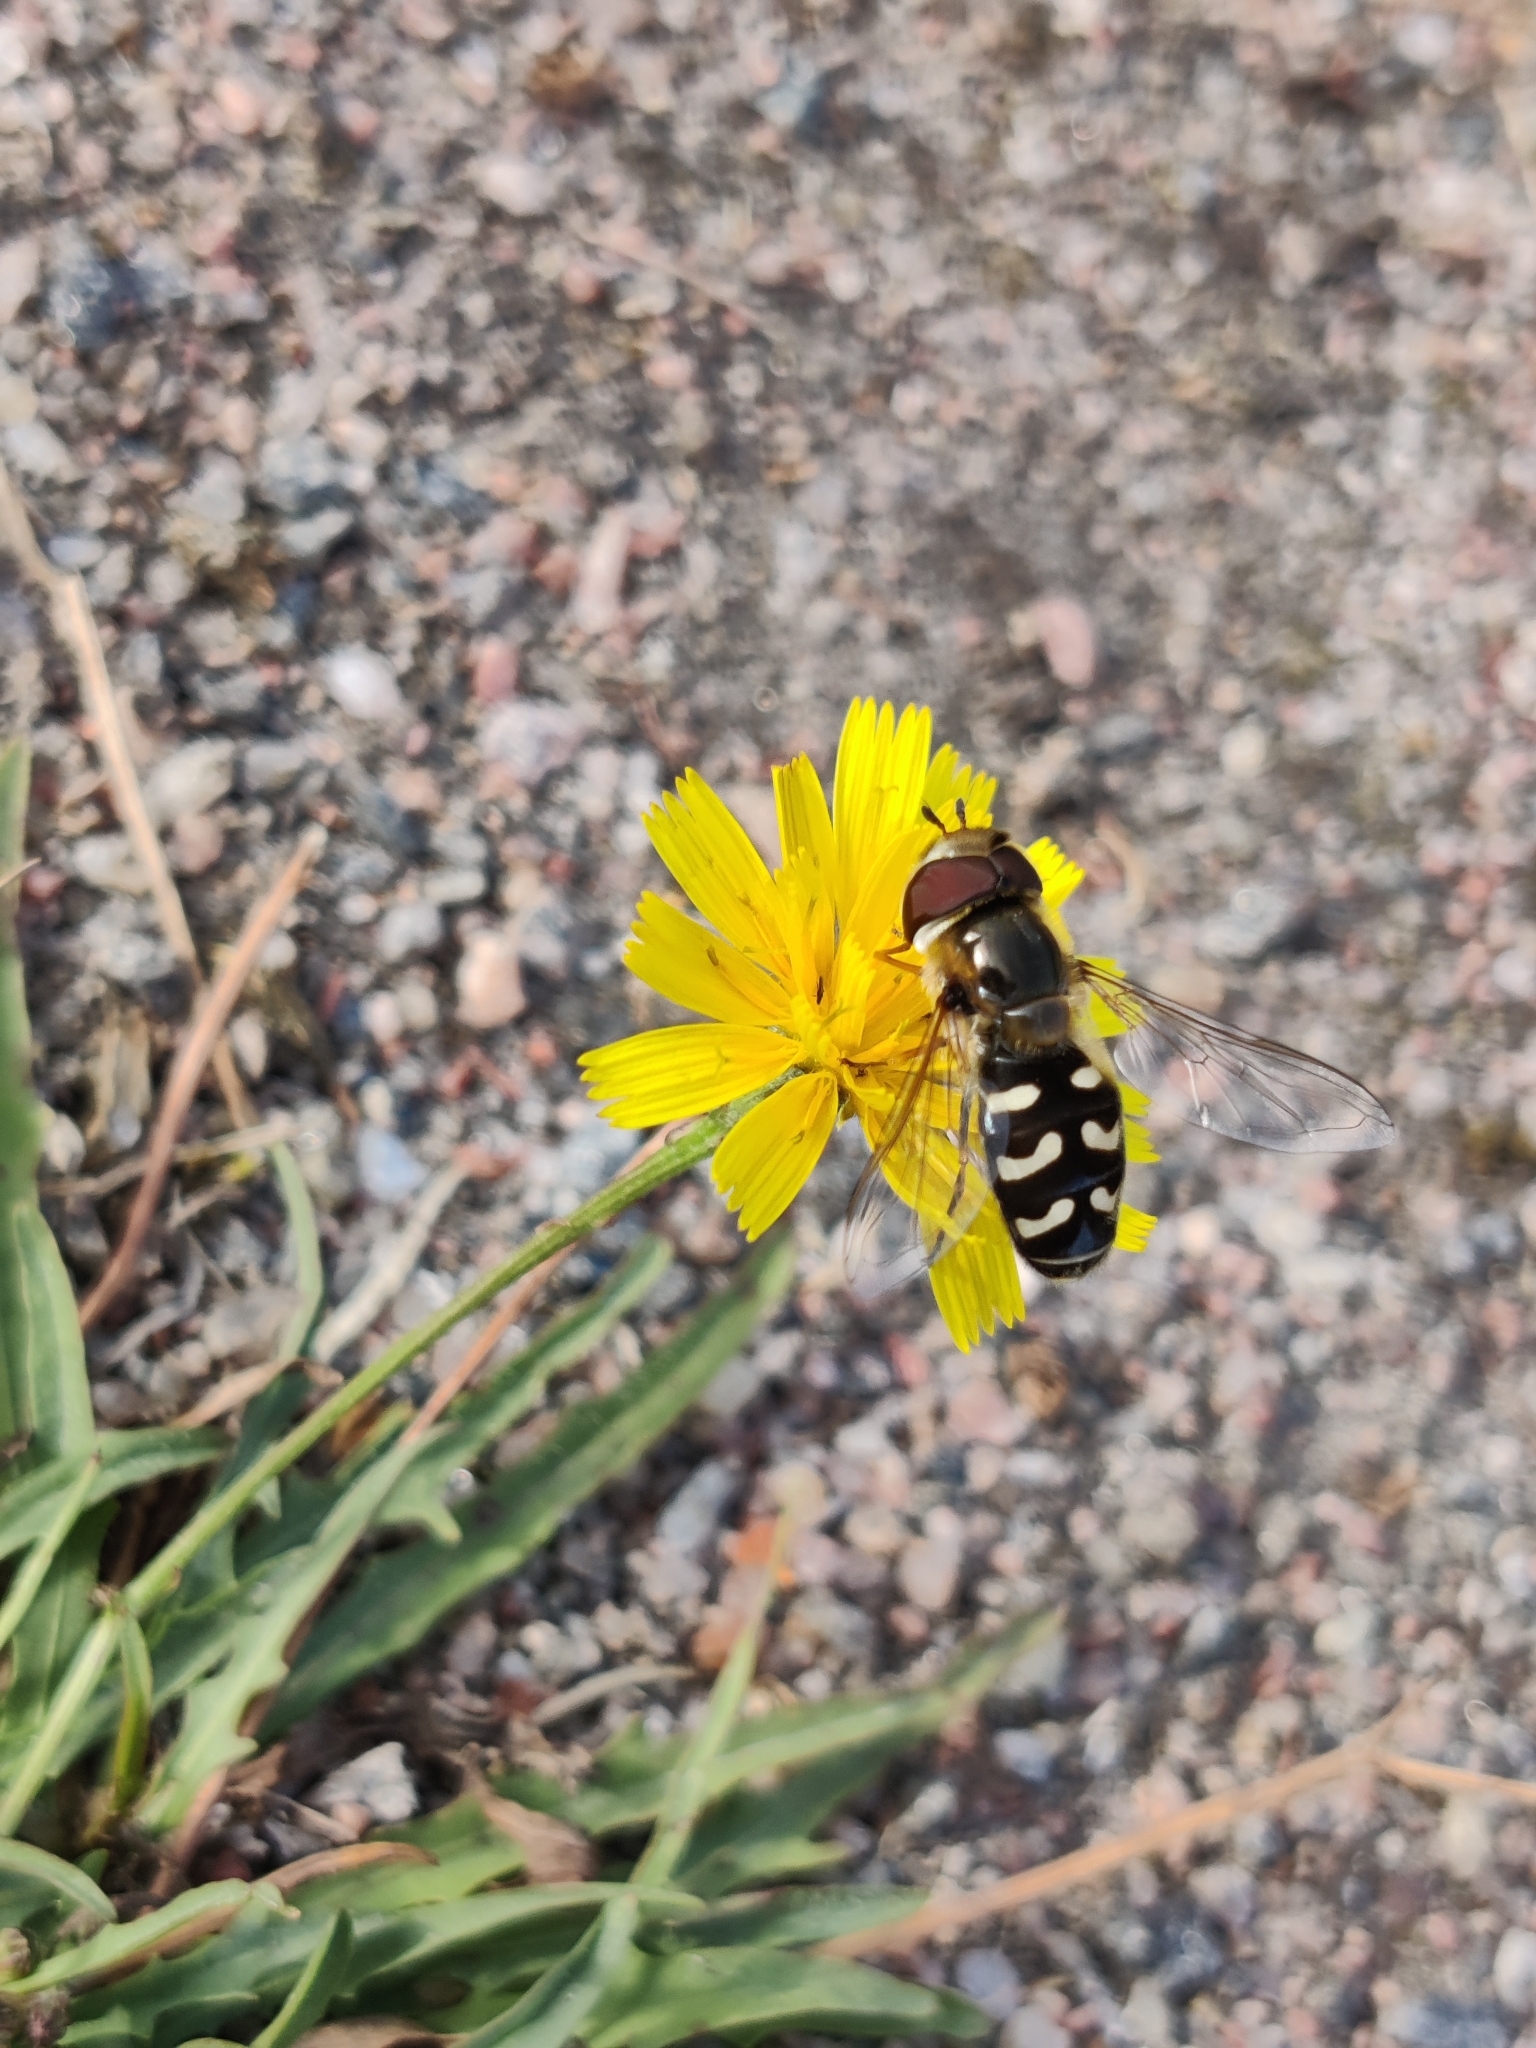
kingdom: Animalia
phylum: Arthropoda
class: Insecta
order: Diptera
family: Syrphidae
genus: Scaeva
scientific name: Scaeva pyrastri
